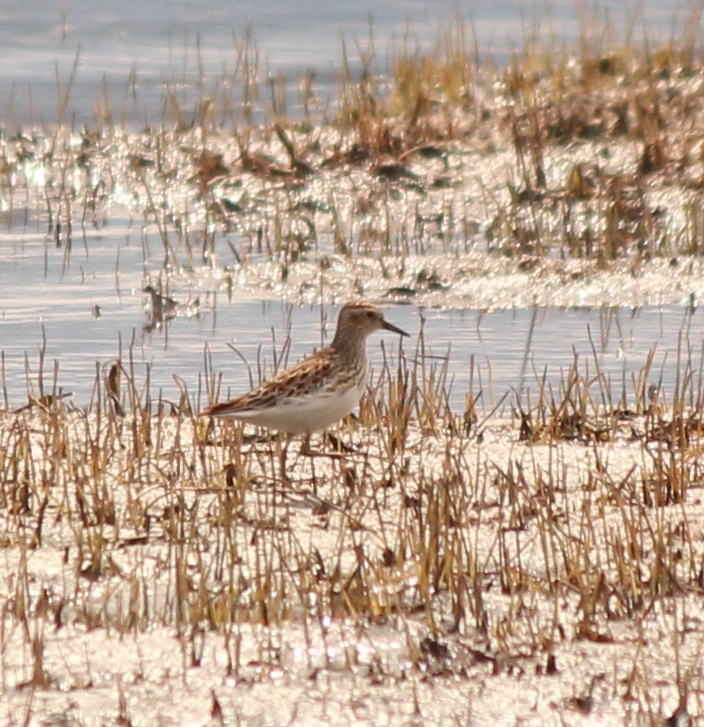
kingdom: Animalia
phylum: Chordata
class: Aves
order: Charadriiformes
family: Scolopacidae
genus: Calidris
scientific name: Calidris subminuta
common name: Long-toed stint
